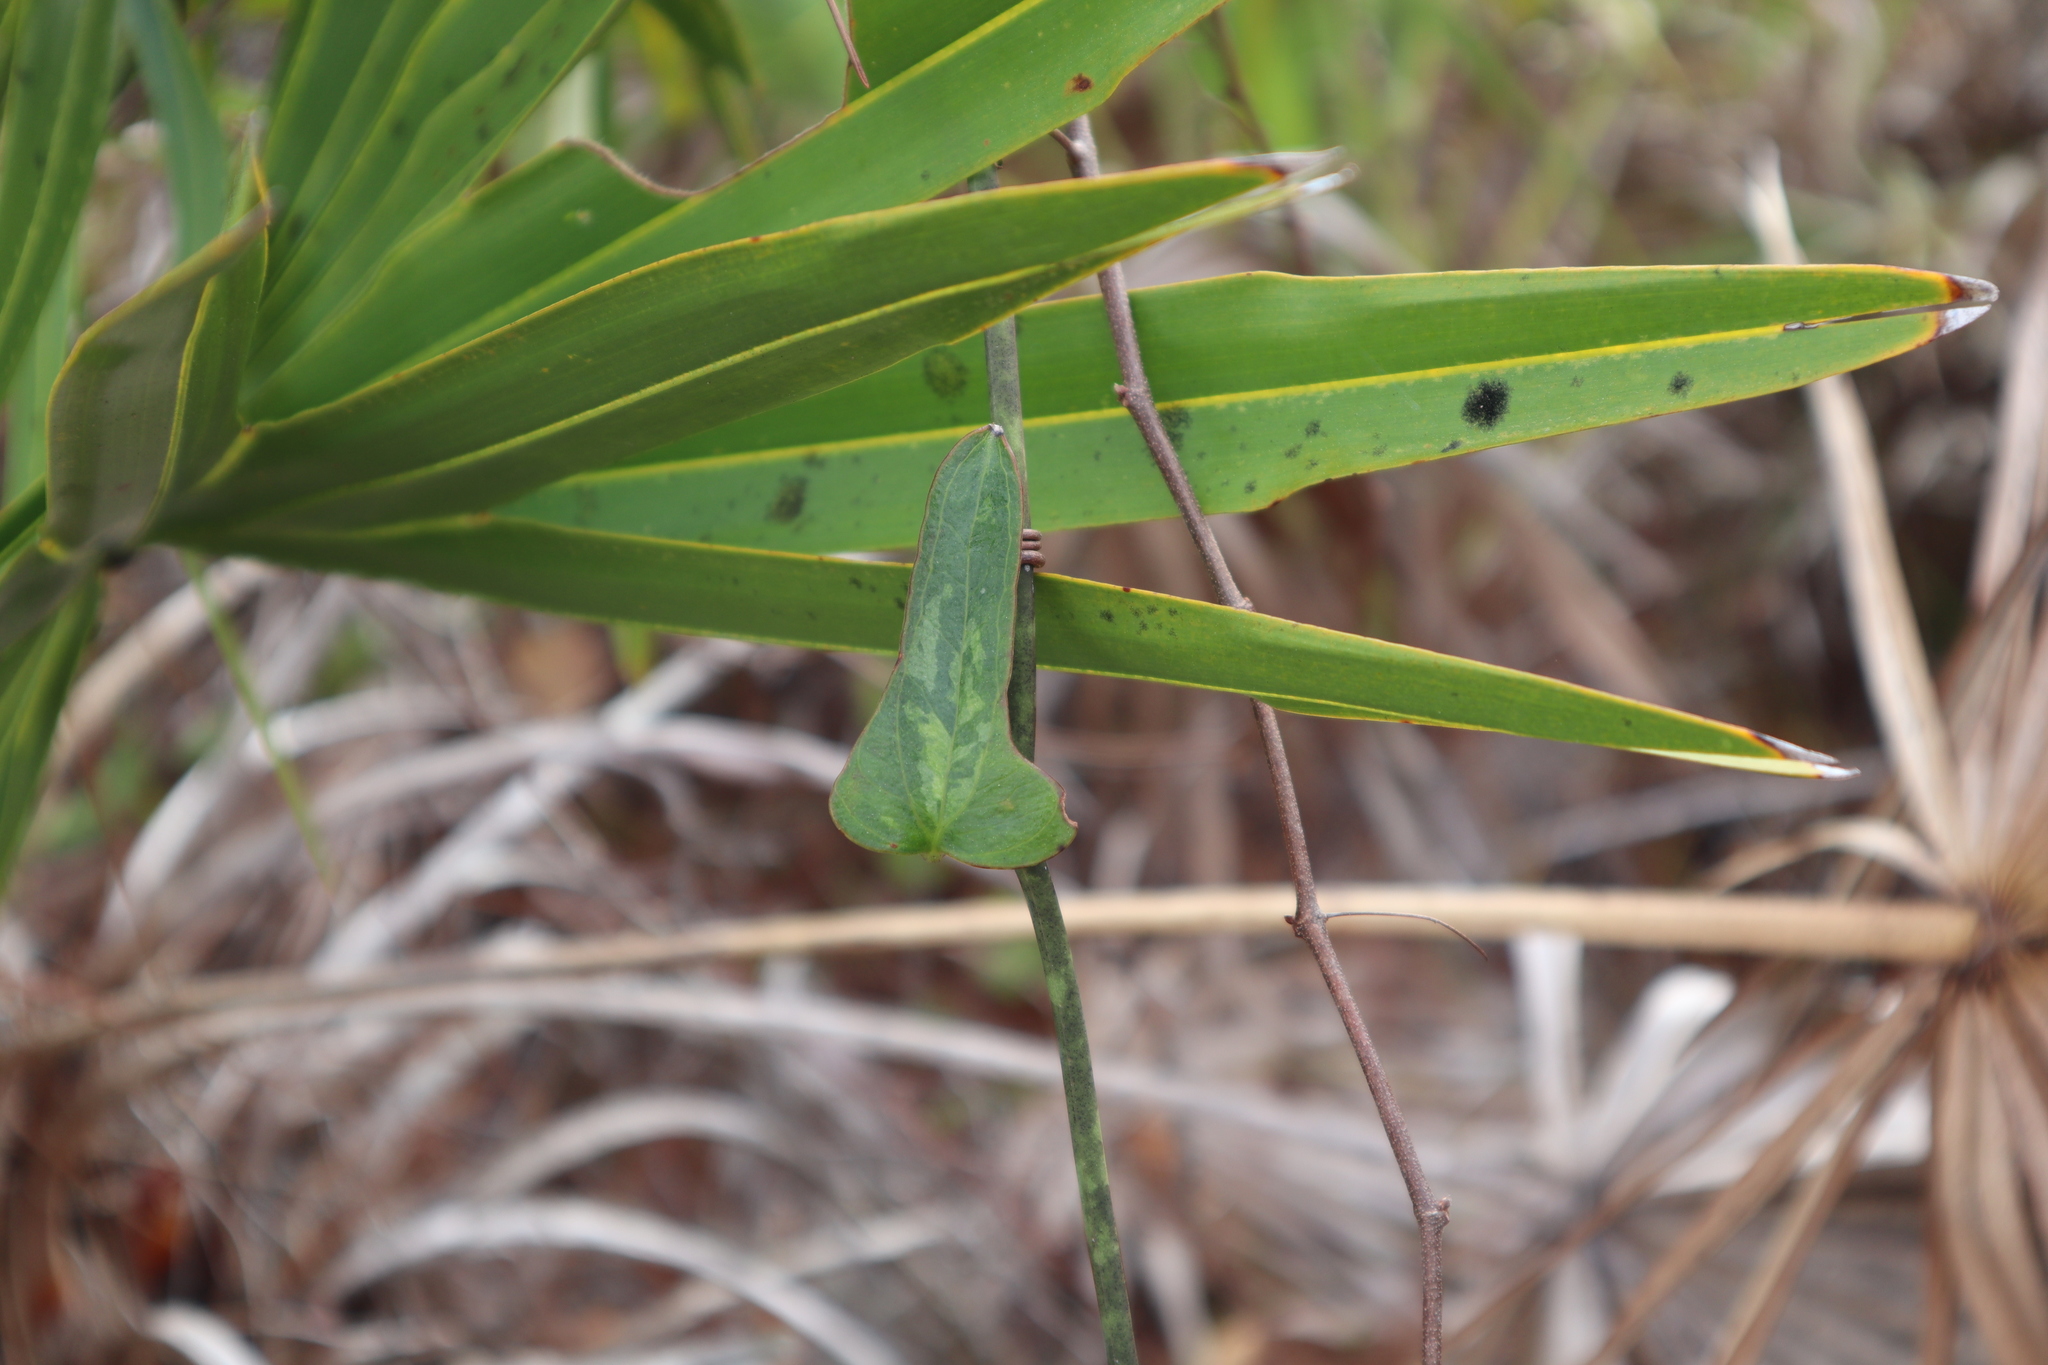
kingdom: Plantae
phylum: Tracheophyta
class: Liliopsida
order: Liliales
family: Smilacaceae
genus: Smilax
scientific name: Smilax auriculata
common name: Wild bamboo
